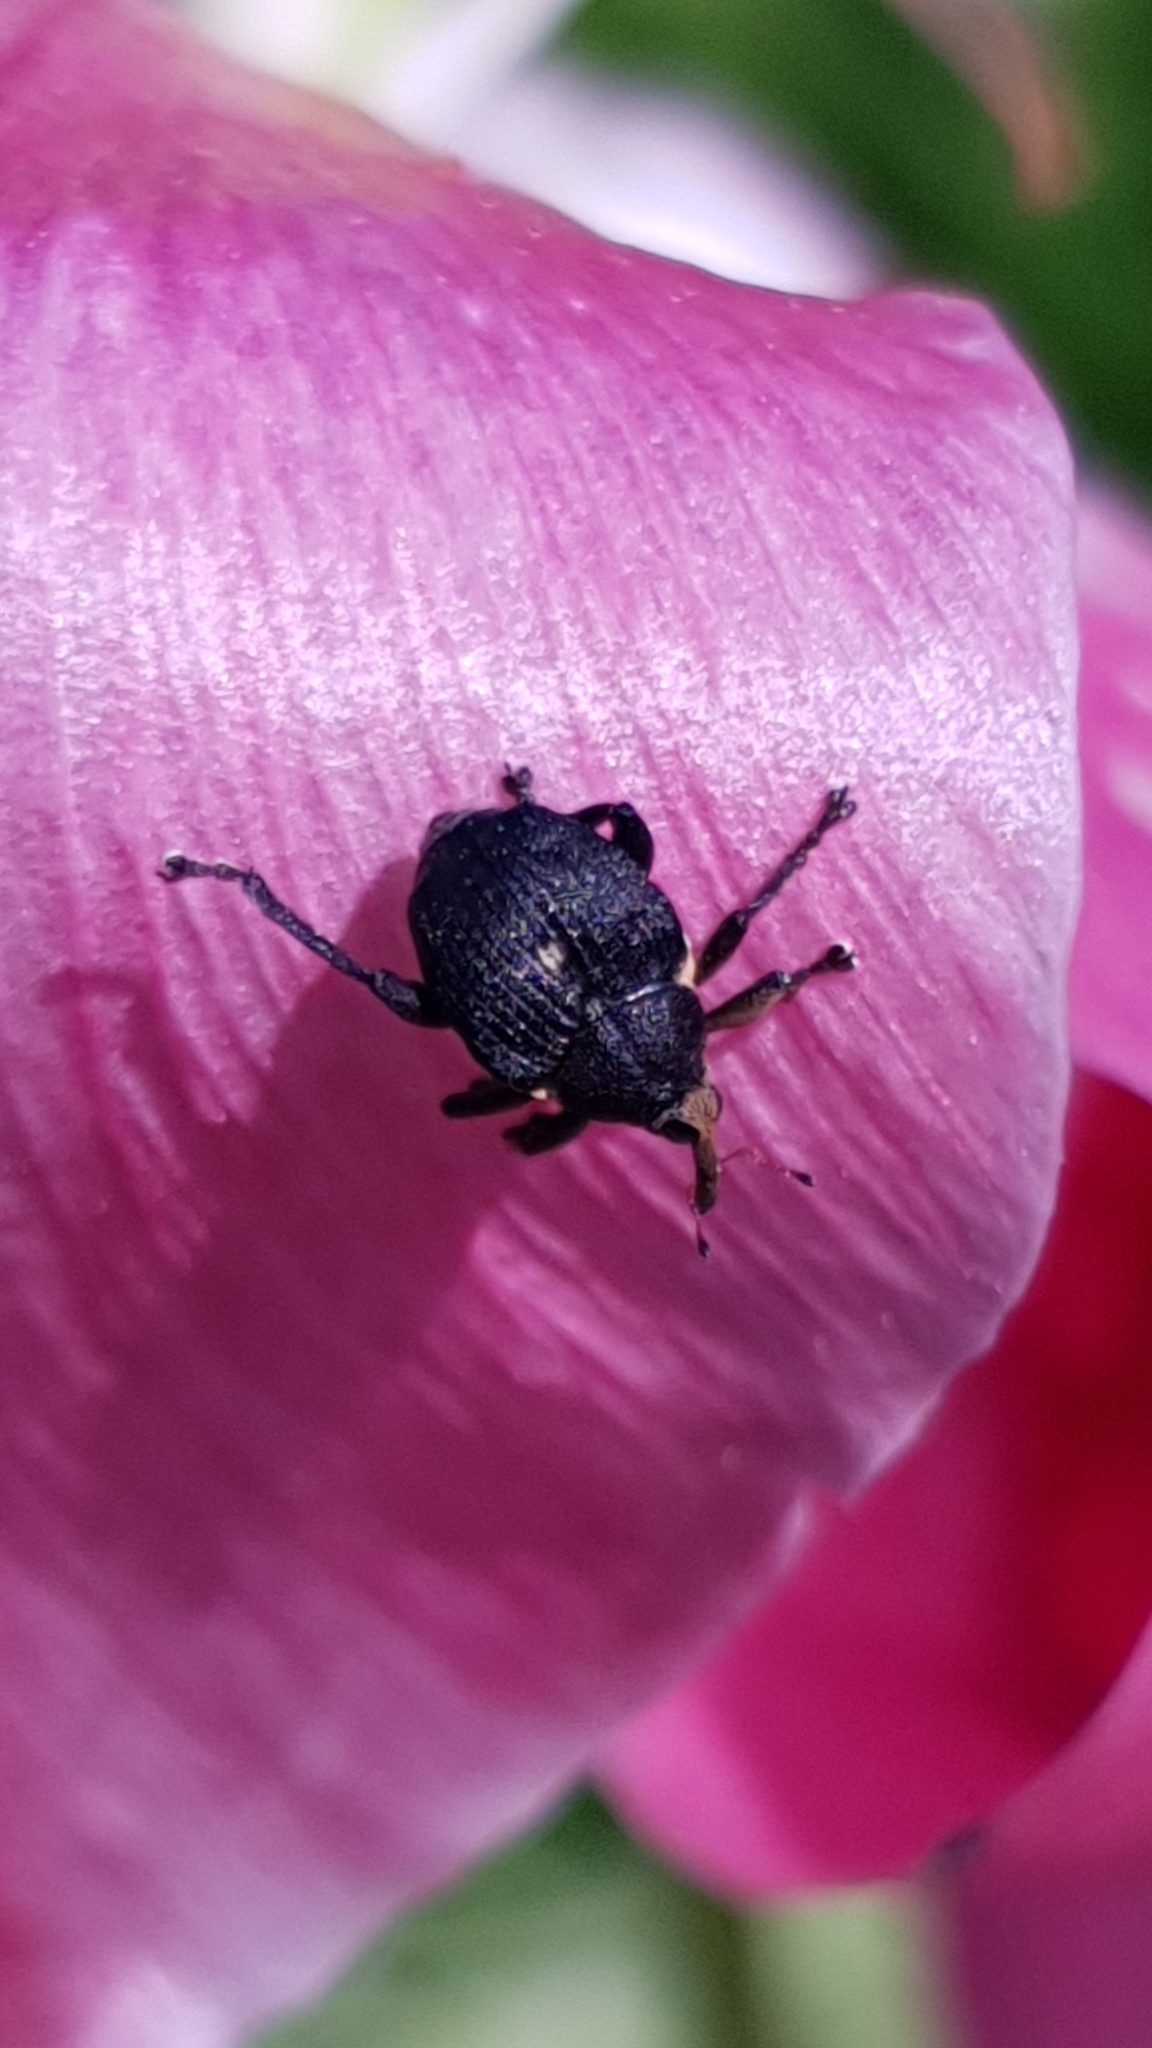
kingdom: Animalia
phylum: Arthropoda
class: Insecta
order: Coleoptera
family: Curculionidae
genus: Mononychus
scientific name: Mononychus punctumalbum
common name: Iris weevil
